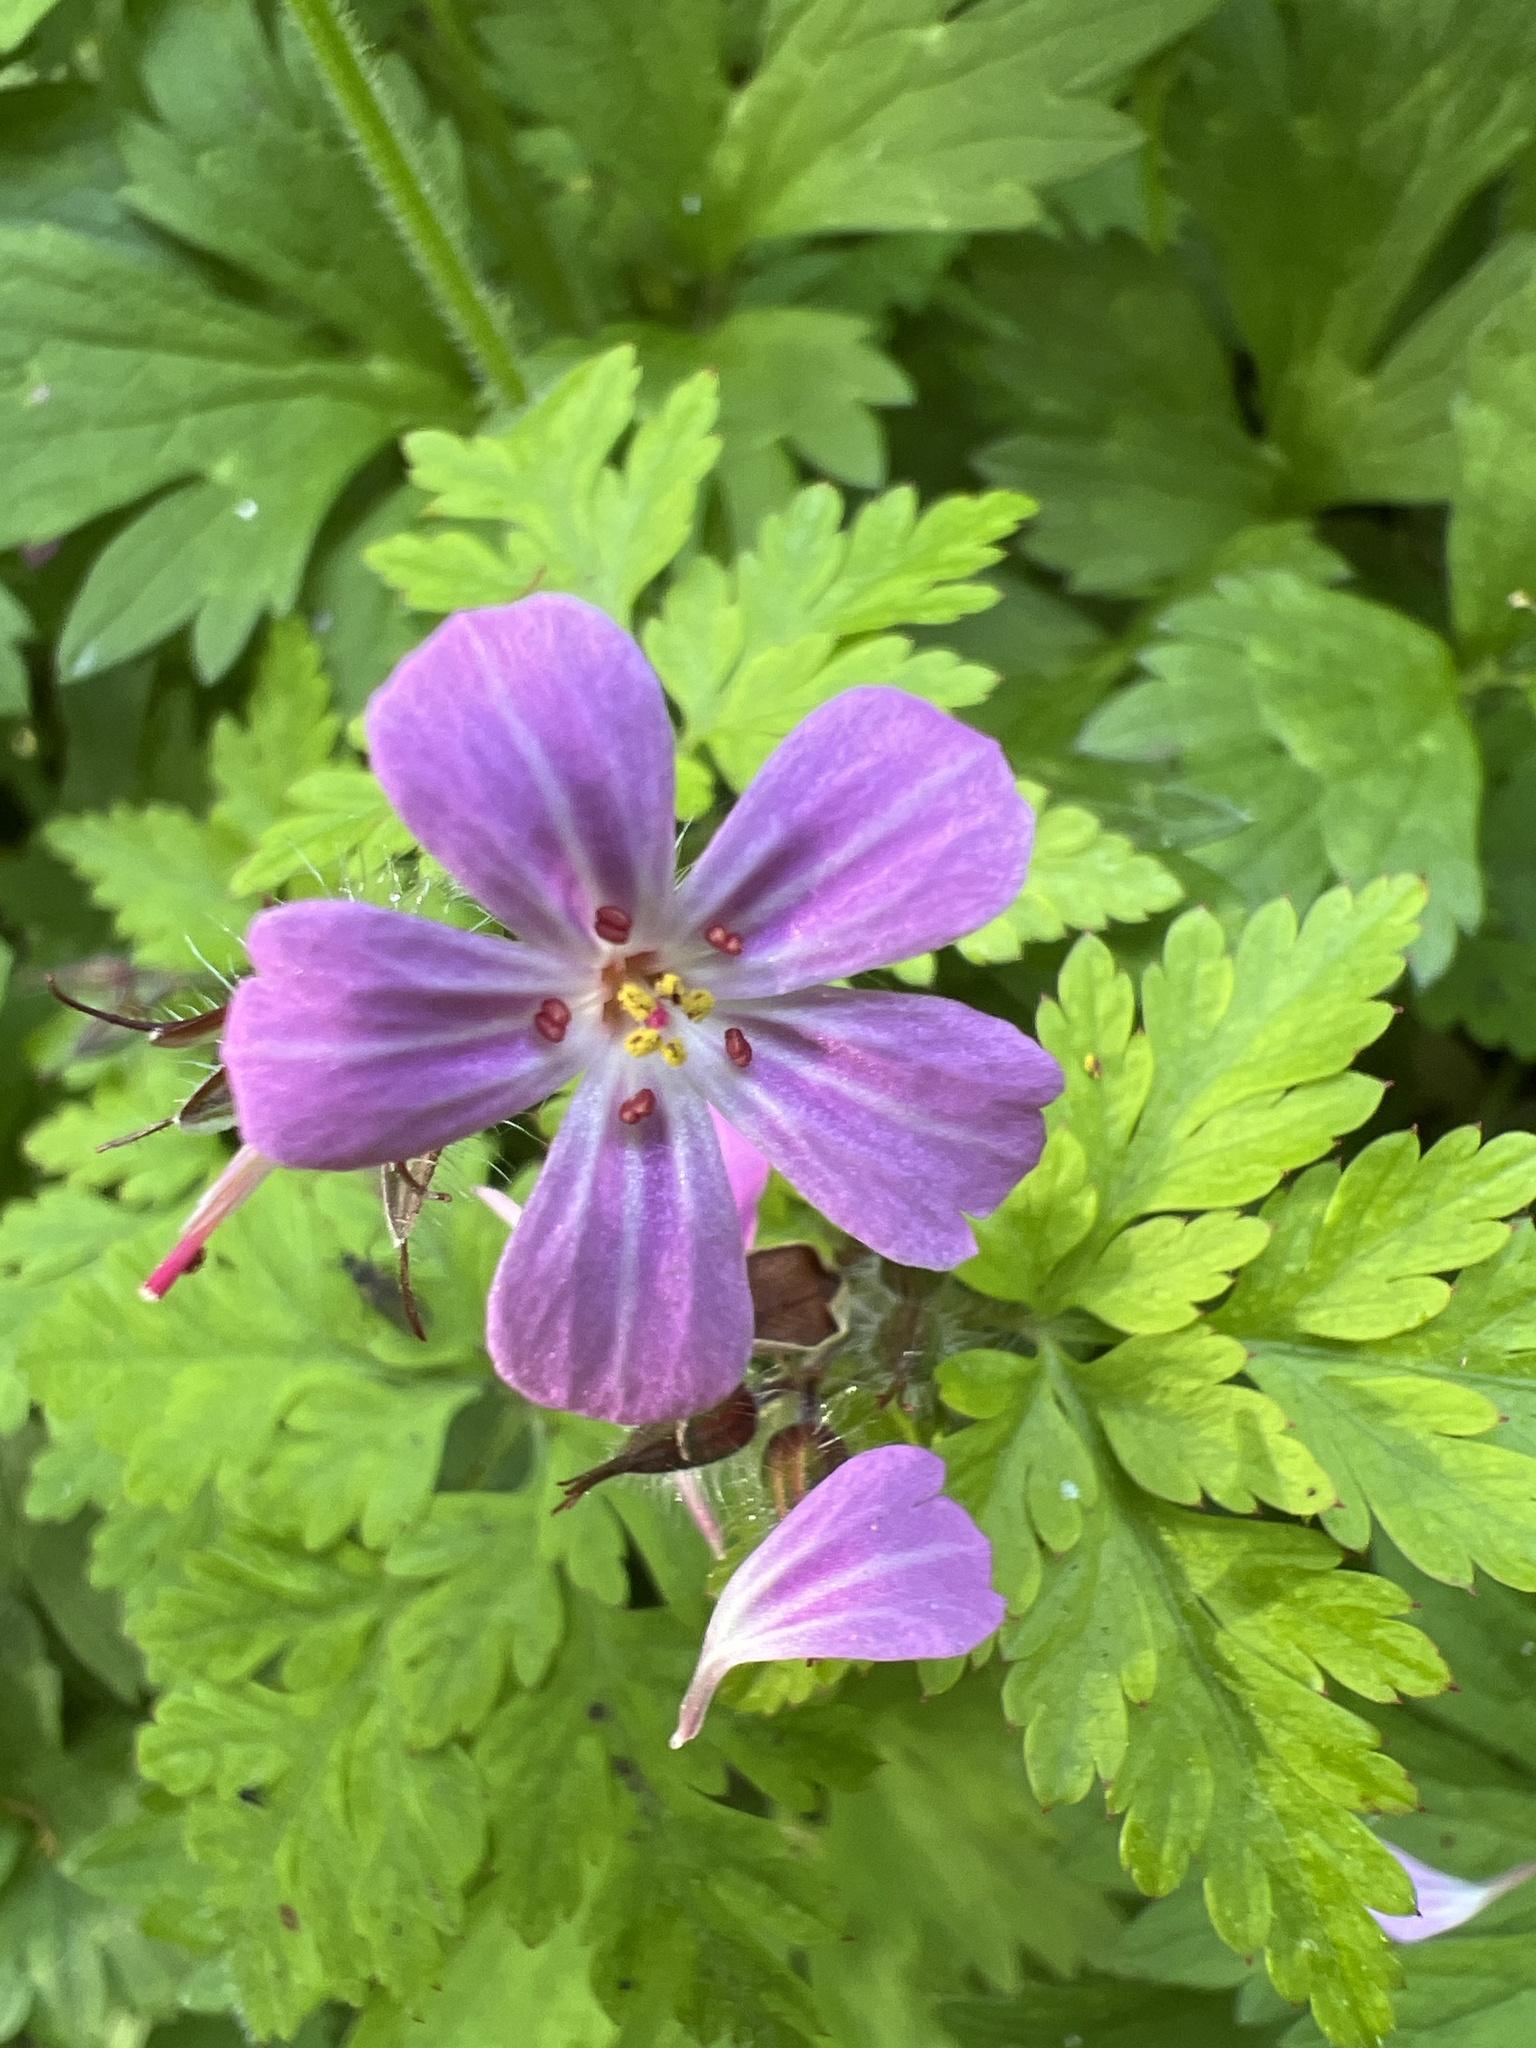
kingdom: Plantae
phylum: Tracheophyta
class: Magnoliopsida
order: Geraniales
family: Geraniaceae
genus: Geranium
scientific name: Geranium robertianum
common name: Herb-robert
